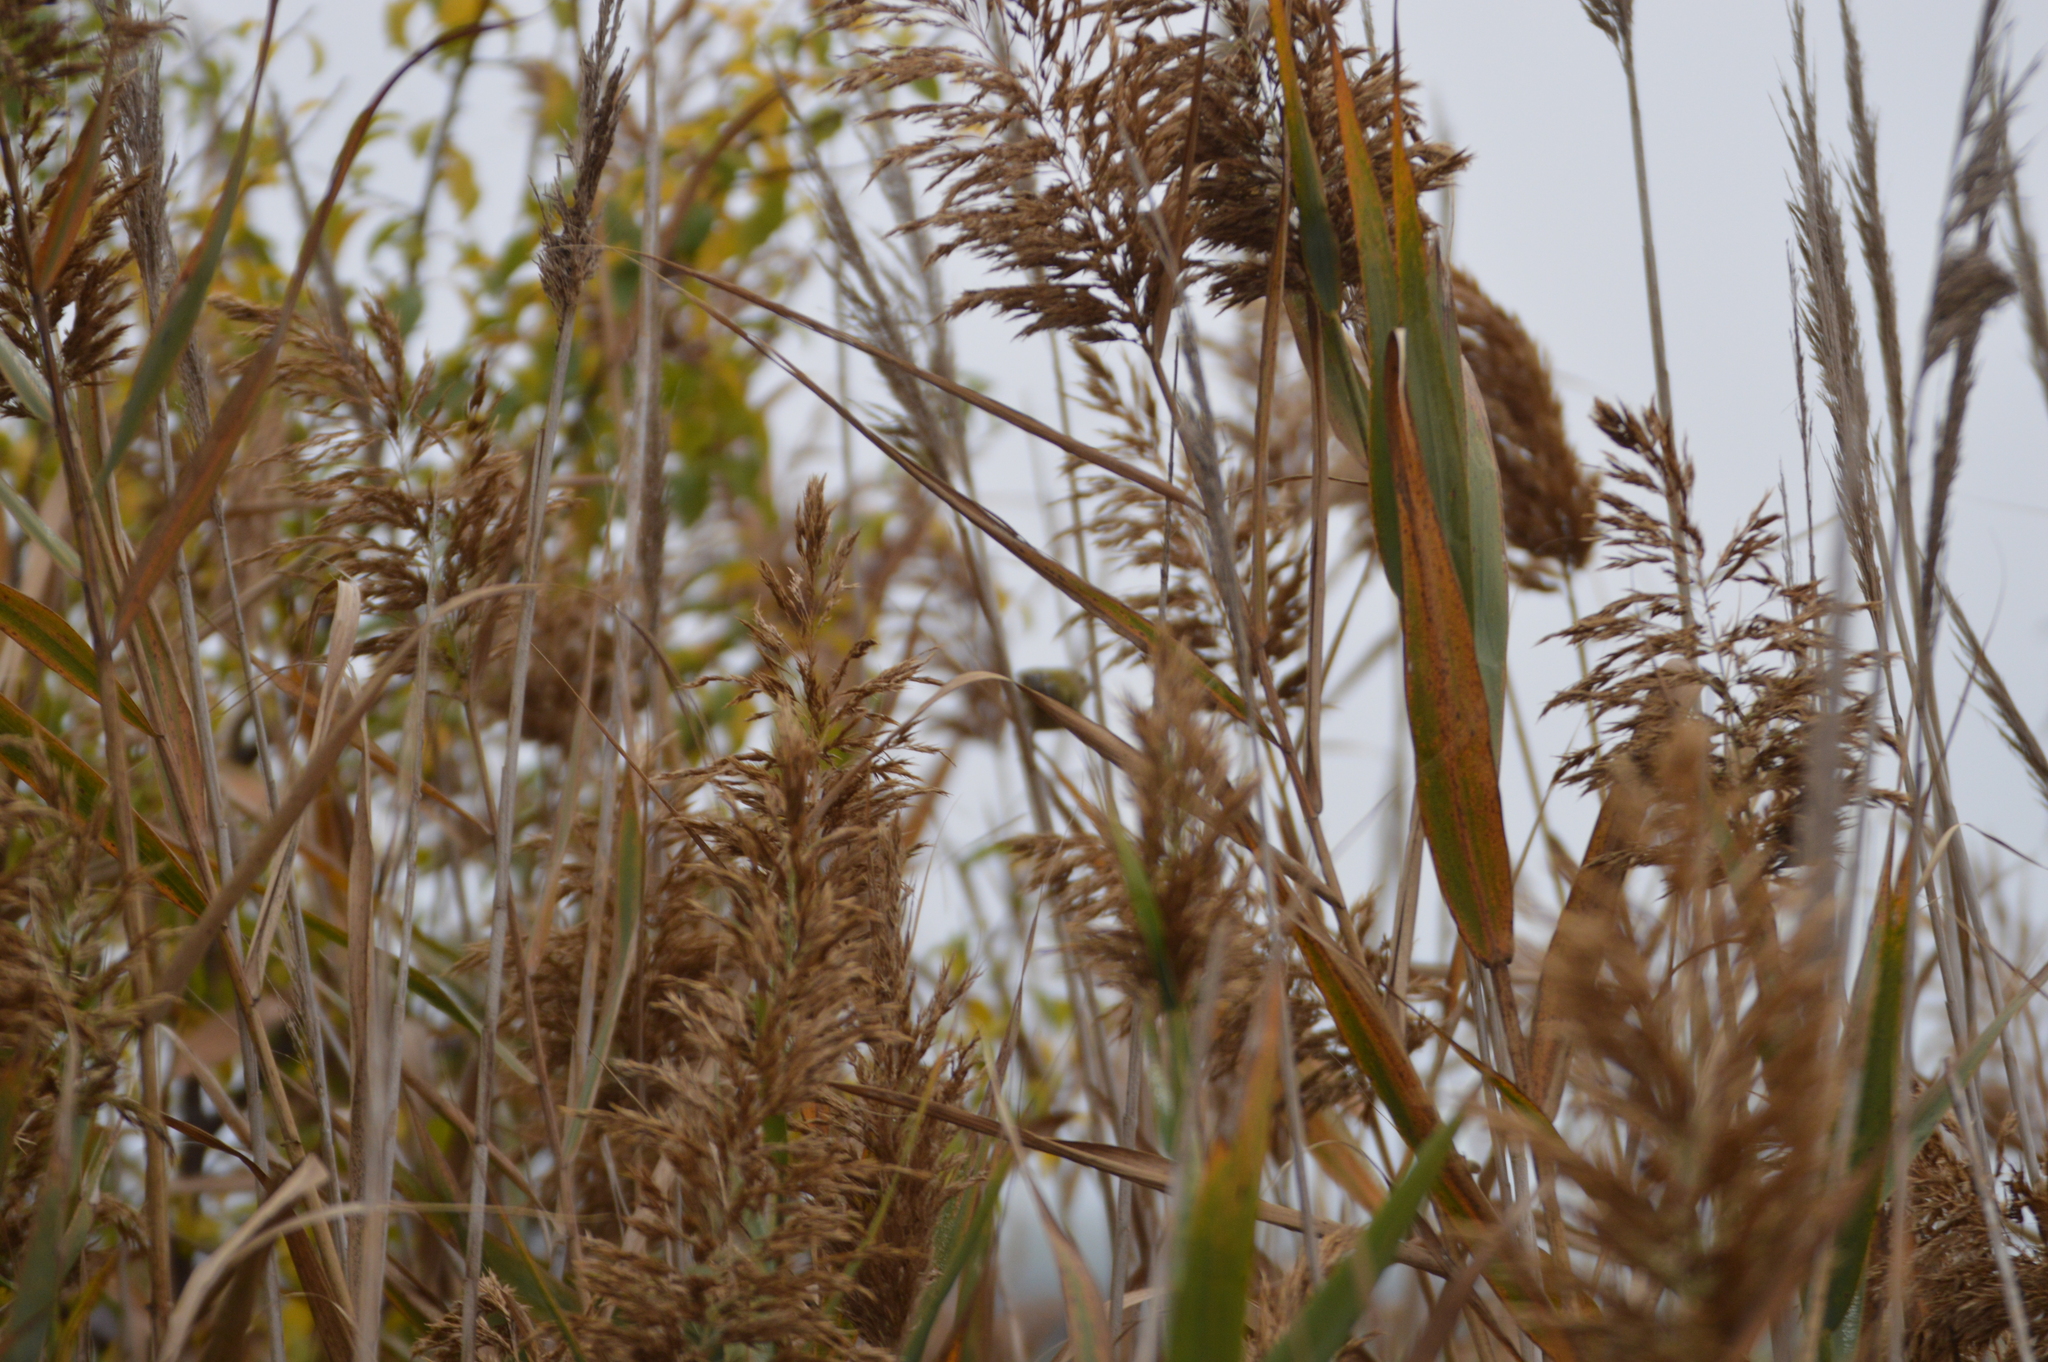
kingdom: Plantae
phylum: Tracheophyta
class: Liliopsida
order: Poales
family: Poaceae
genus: Phragmites
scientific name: Phragmites australis
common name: Common reed
